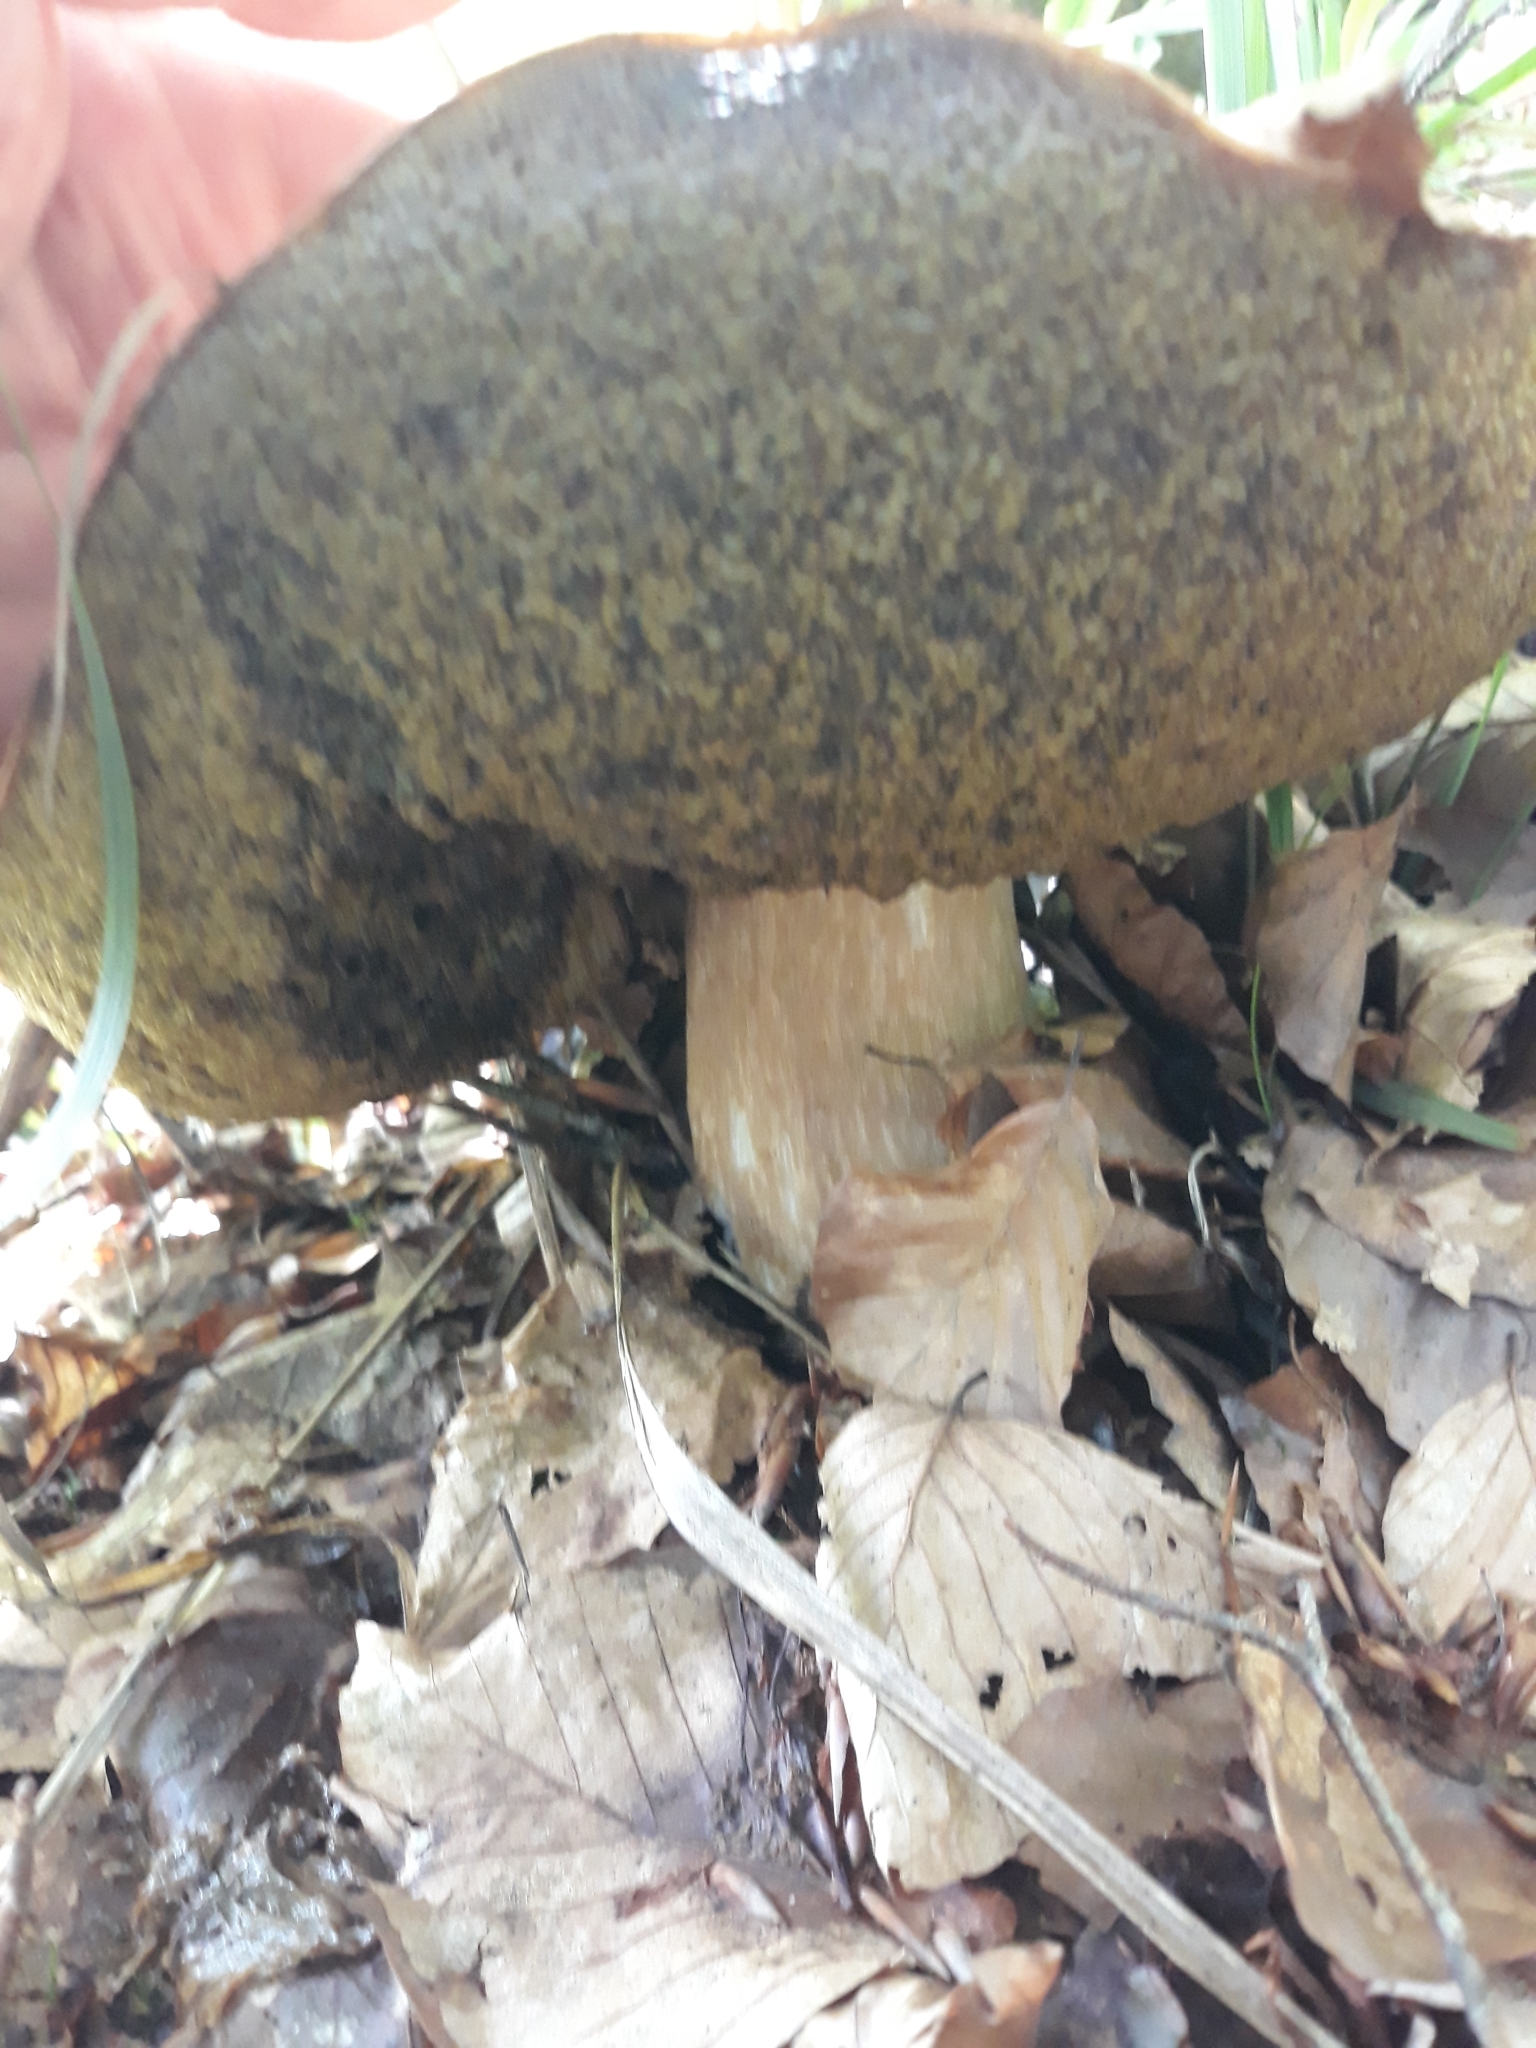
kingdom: Fungi
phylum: Basidiomycota
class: Agaricomycetes
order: Boletales
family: Boletaceae
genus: Boletus
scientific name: Boletus edulis
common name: Cep
